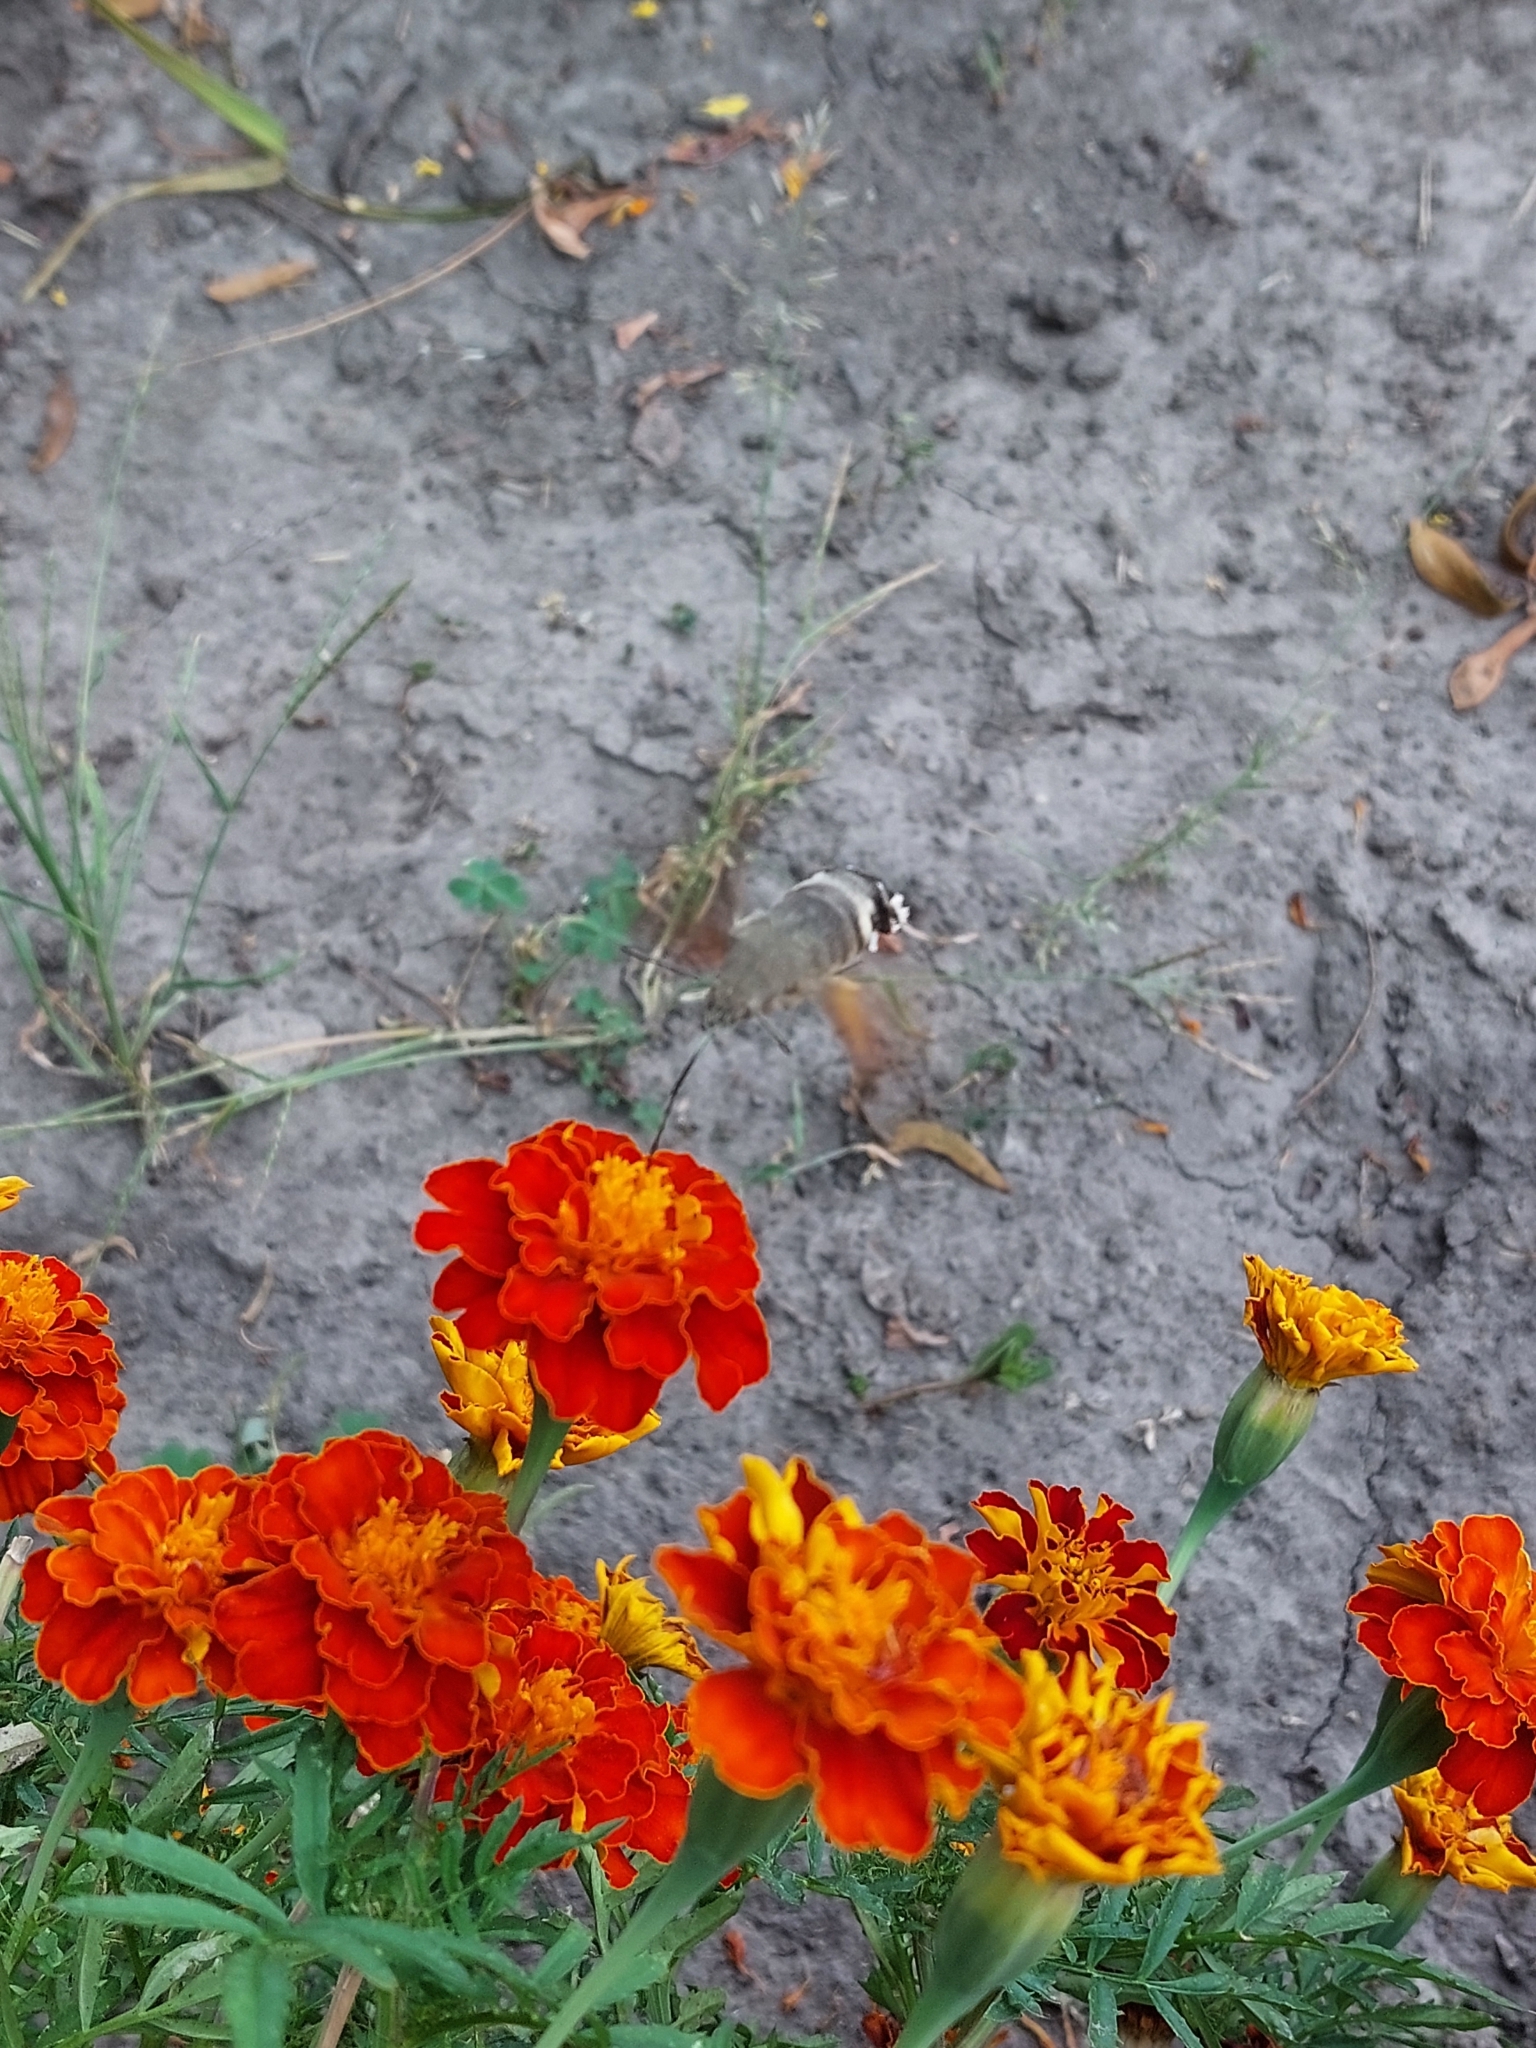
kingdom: Animalia
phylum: Arthropoda
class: Insecta
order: Lepidoptera
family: Sphingidae
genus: Macroglossum
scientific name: Macroglossum stellatarum
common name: Humming-bird hawk-moth
